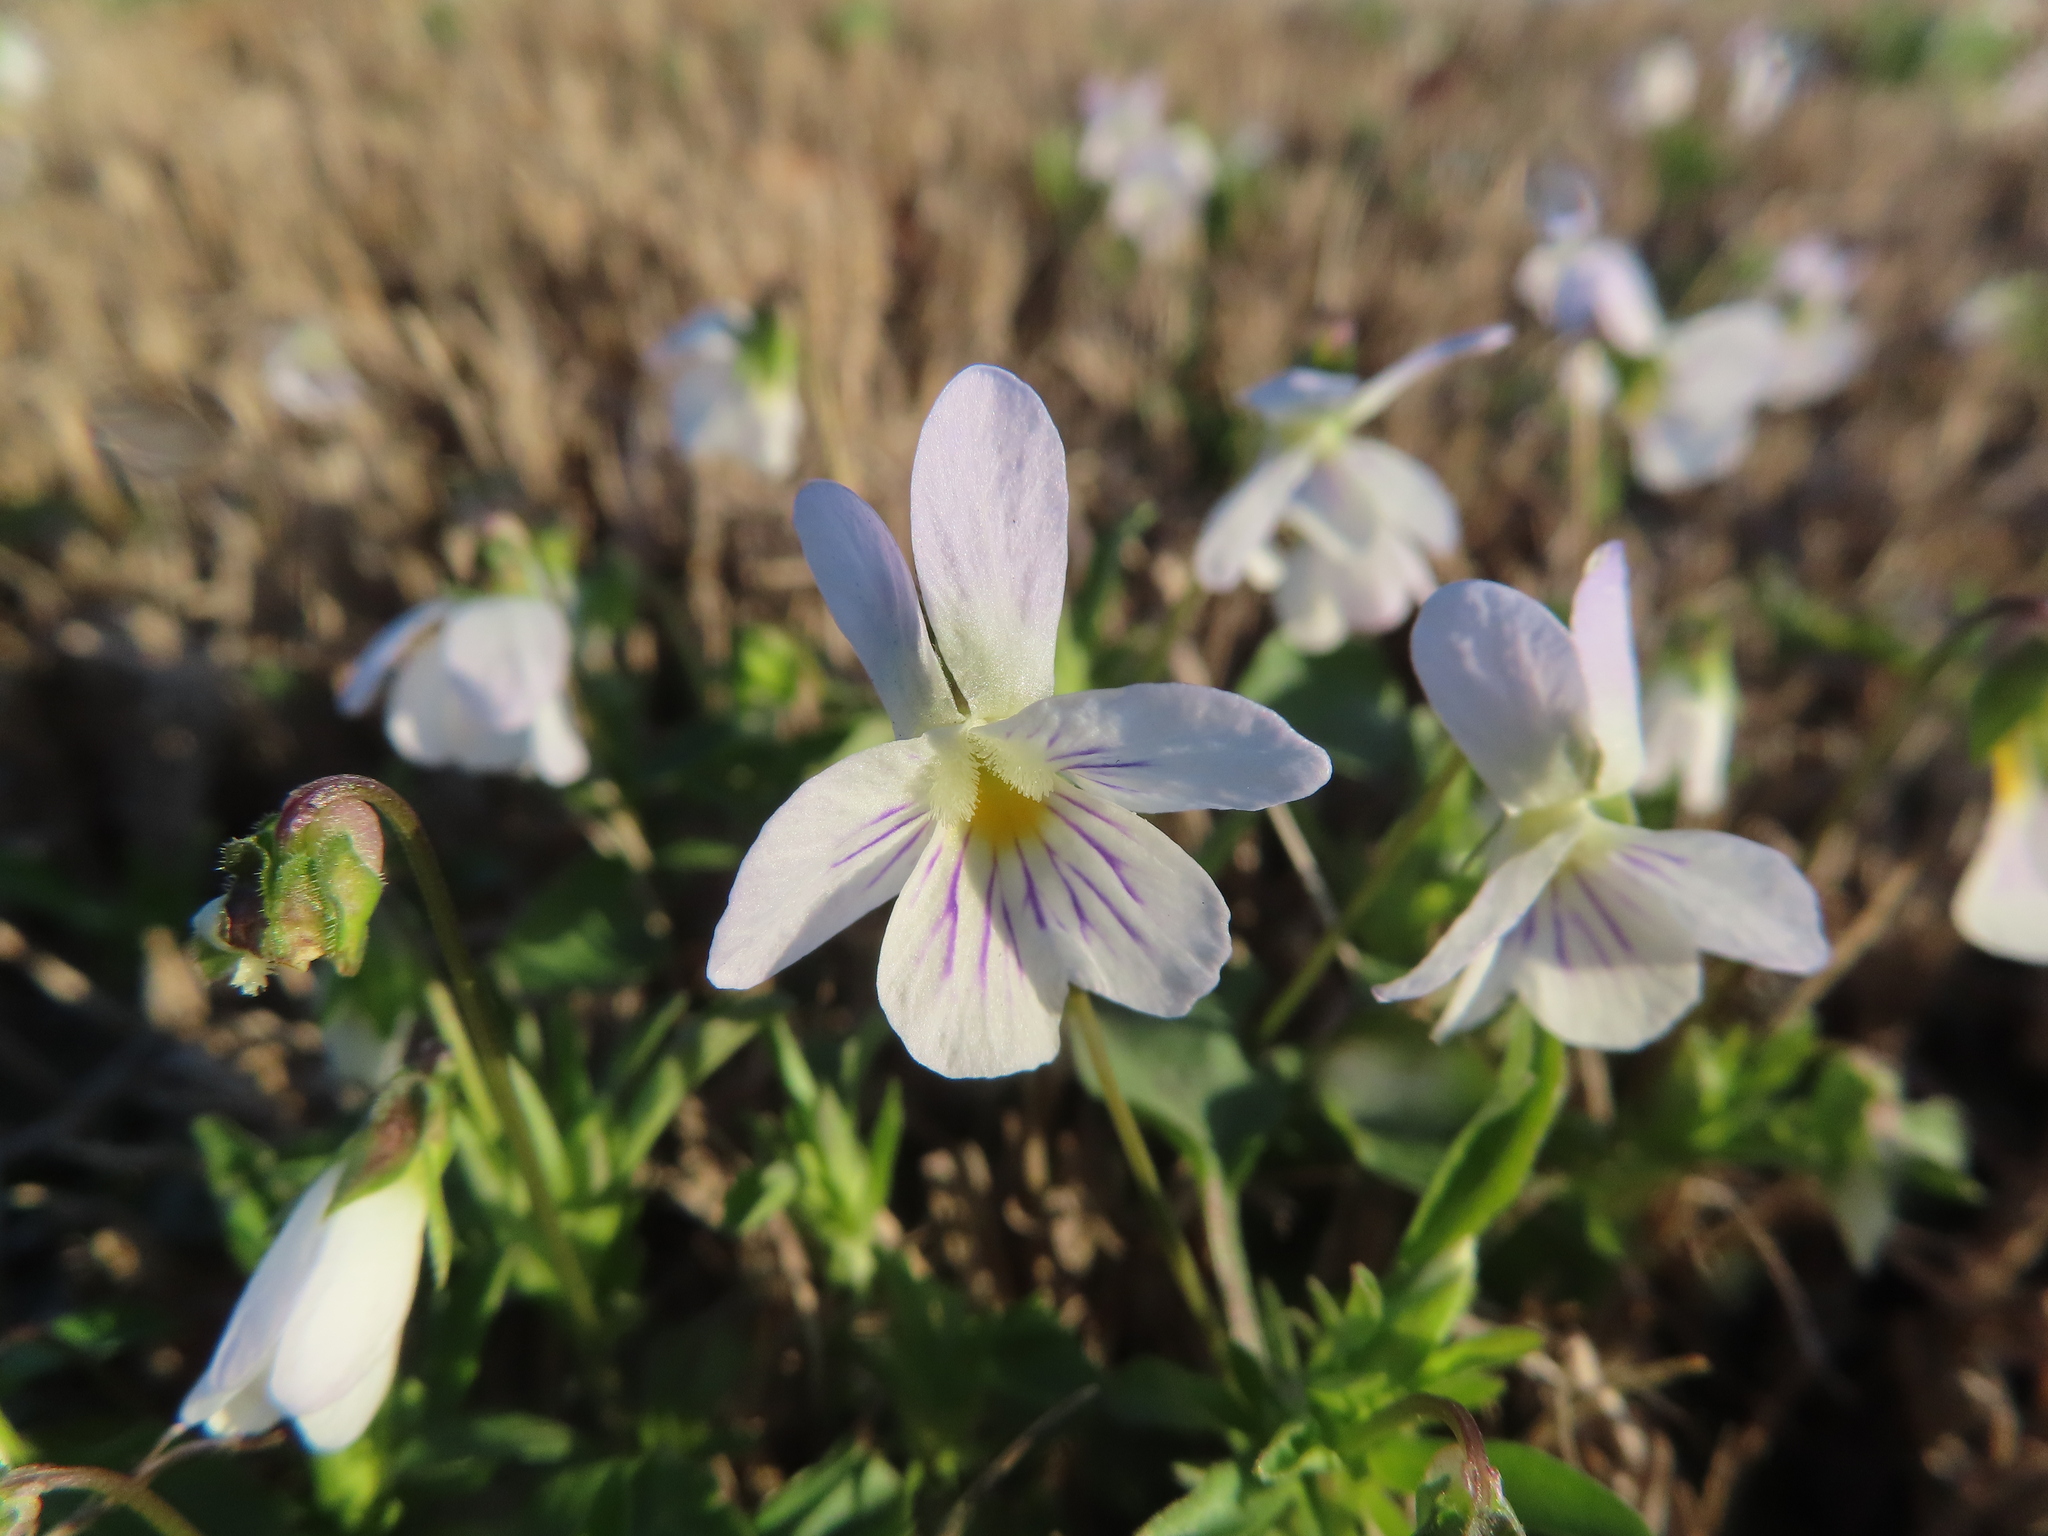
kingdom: Plantae
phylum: Tracheophyta
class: Magnoliopsida
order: Malpighiales
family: Violaceae
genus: Viola
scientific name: Viola rafinesquei
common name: American field pansy
